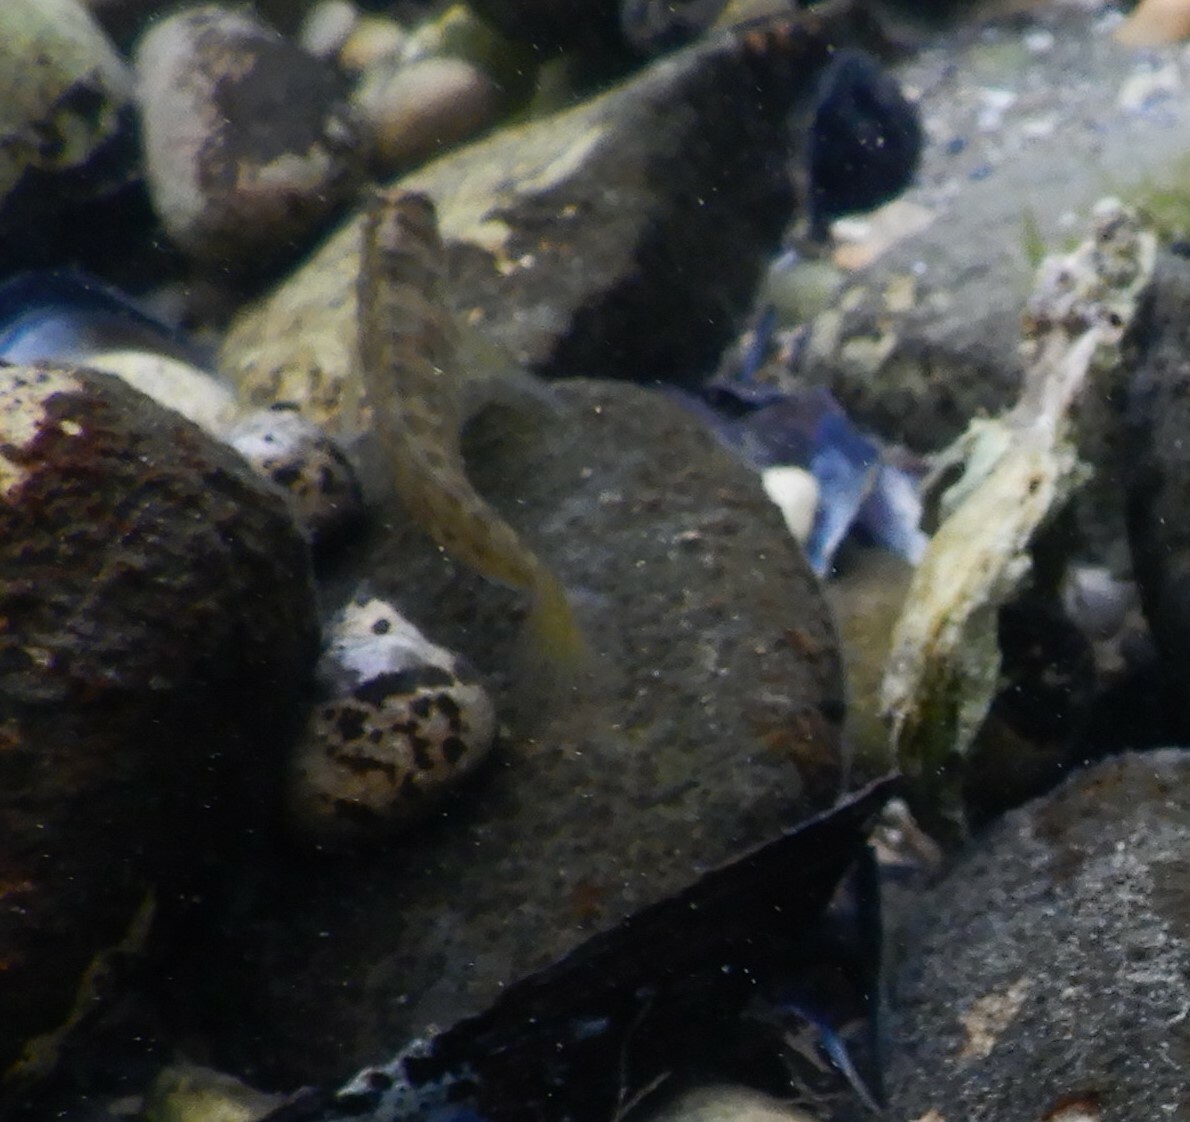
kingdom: Animalia
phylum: Chordata
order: Perciformes
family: Blenniidae
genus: Salaria
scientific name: Salaria pavo
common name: Peacock blenny
